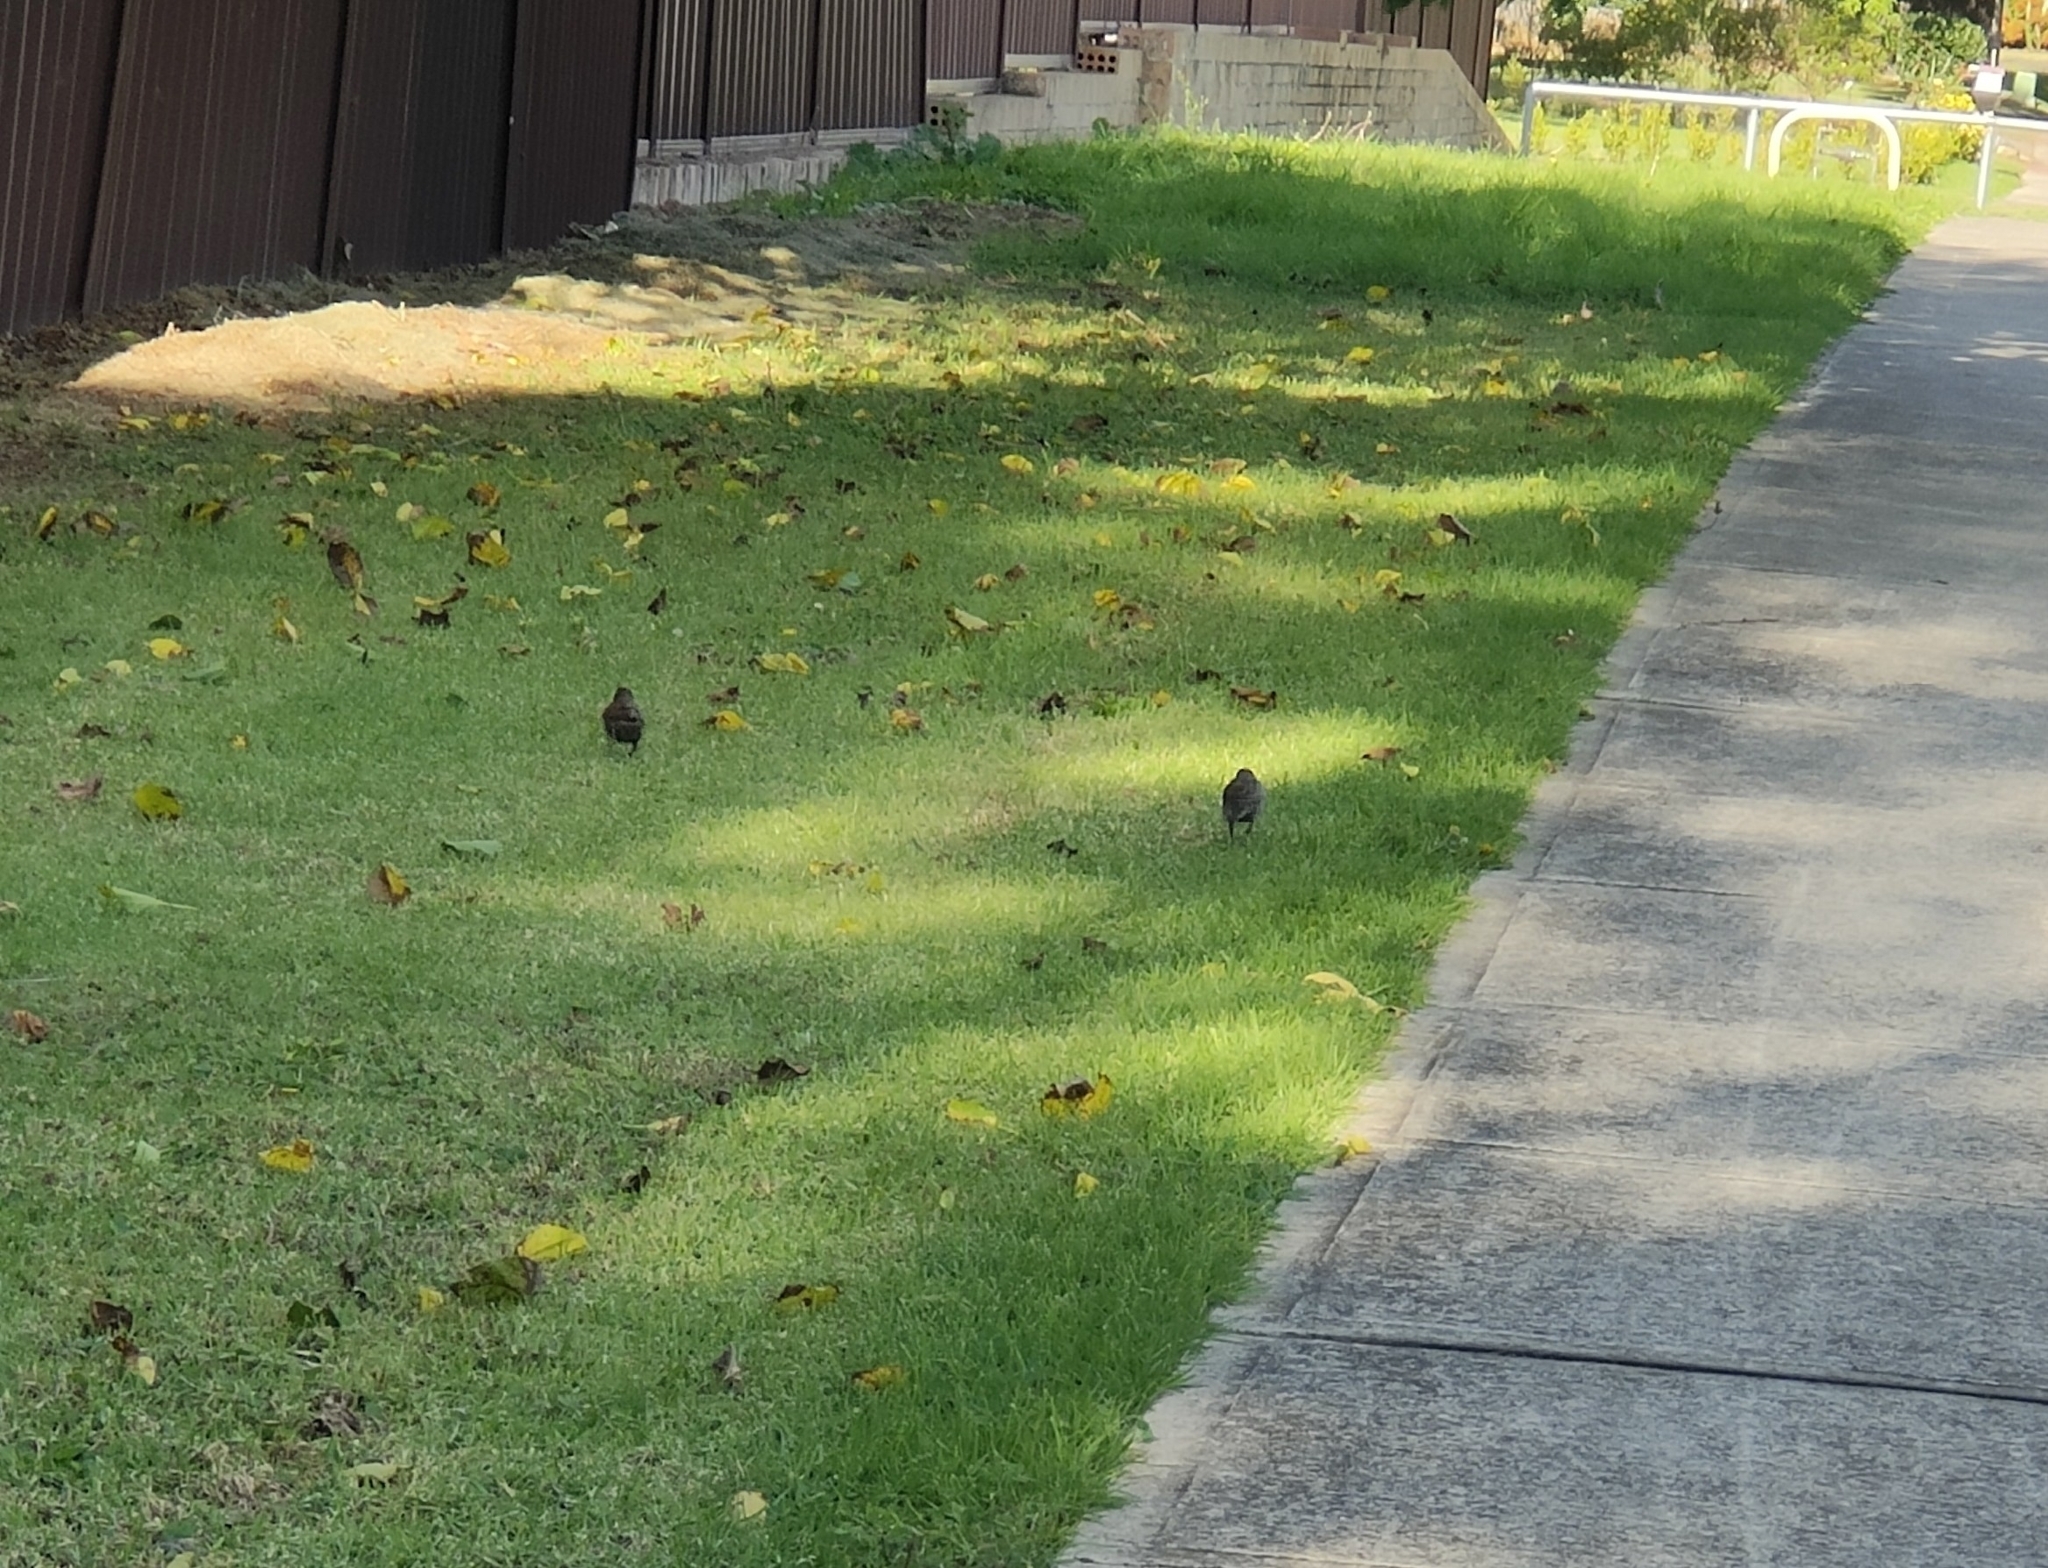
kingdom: Animalia
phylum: Chordata
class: Aves
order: Passeriformes
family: Sturnidae
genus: Sturnus
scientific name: Sturnus vulgaris
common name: Common starling
